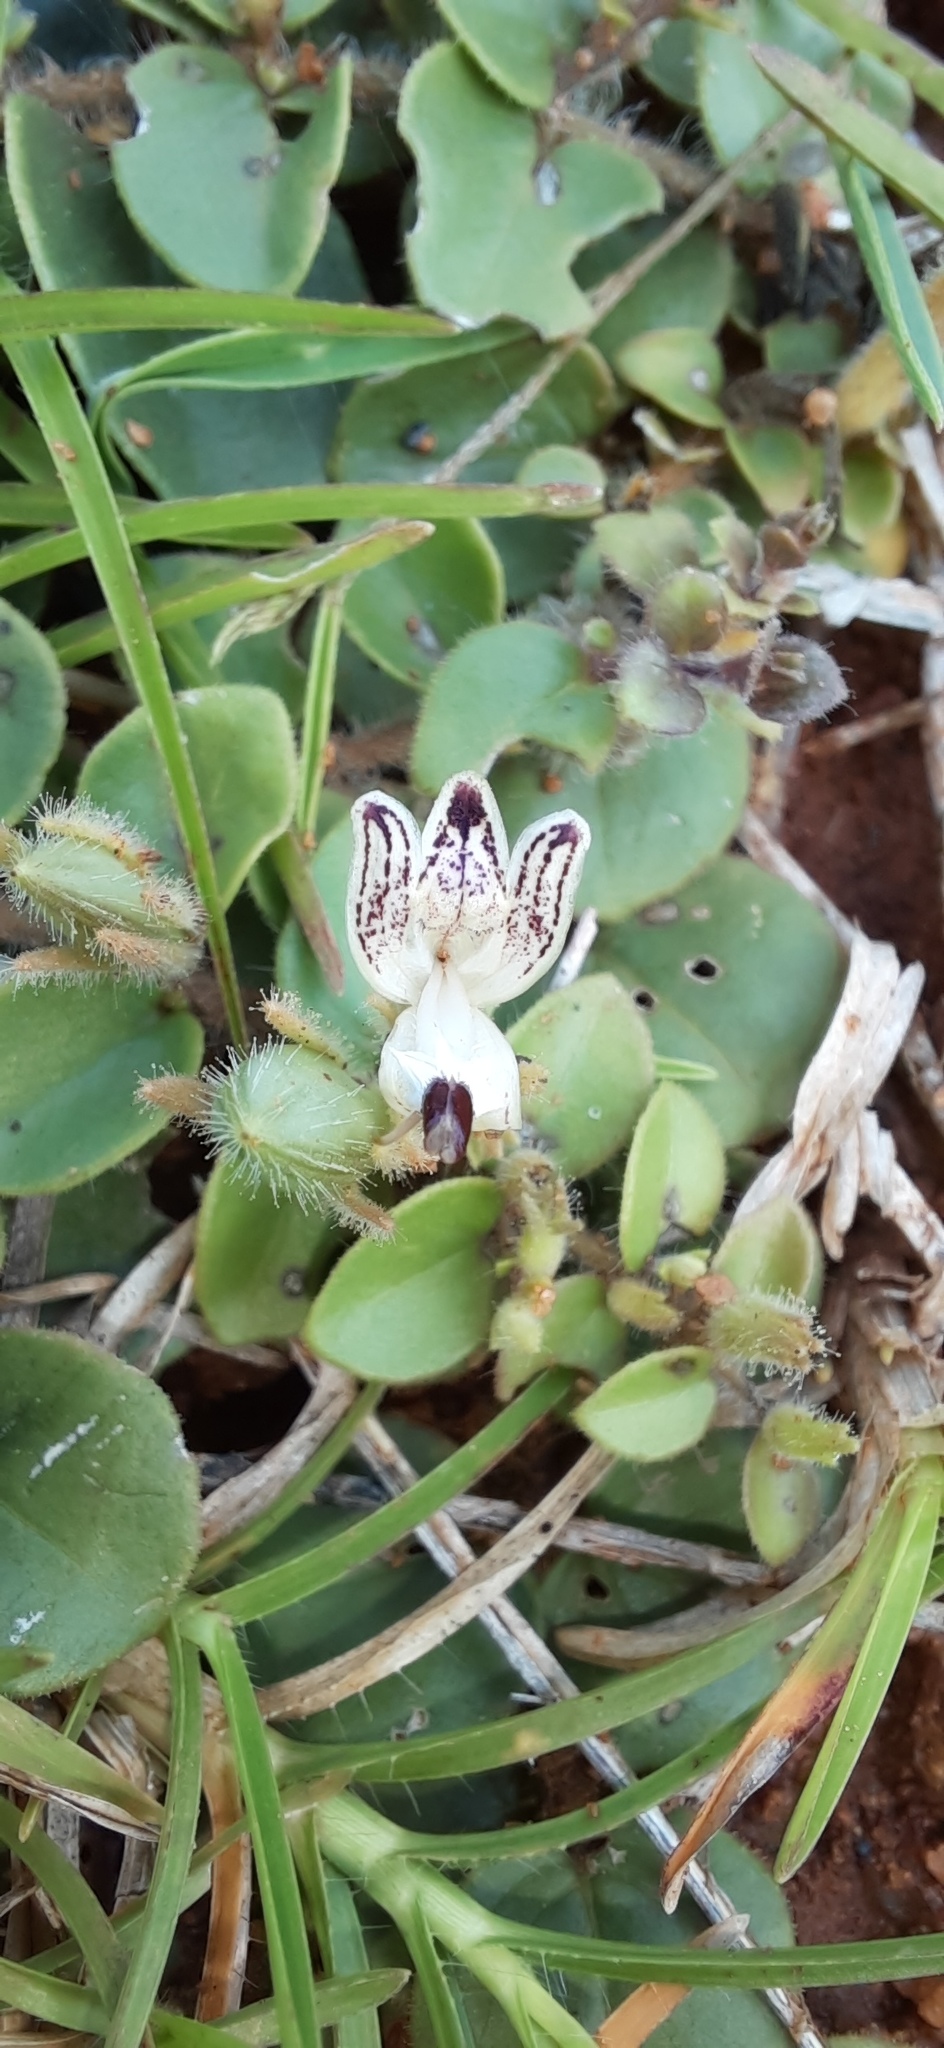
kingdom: Plantae
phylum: Tracheophyta
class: Magnoliopsida
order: Lamiales
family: Acanthaceae
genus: Andrographis
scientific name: Andrographis serpyllifolia
